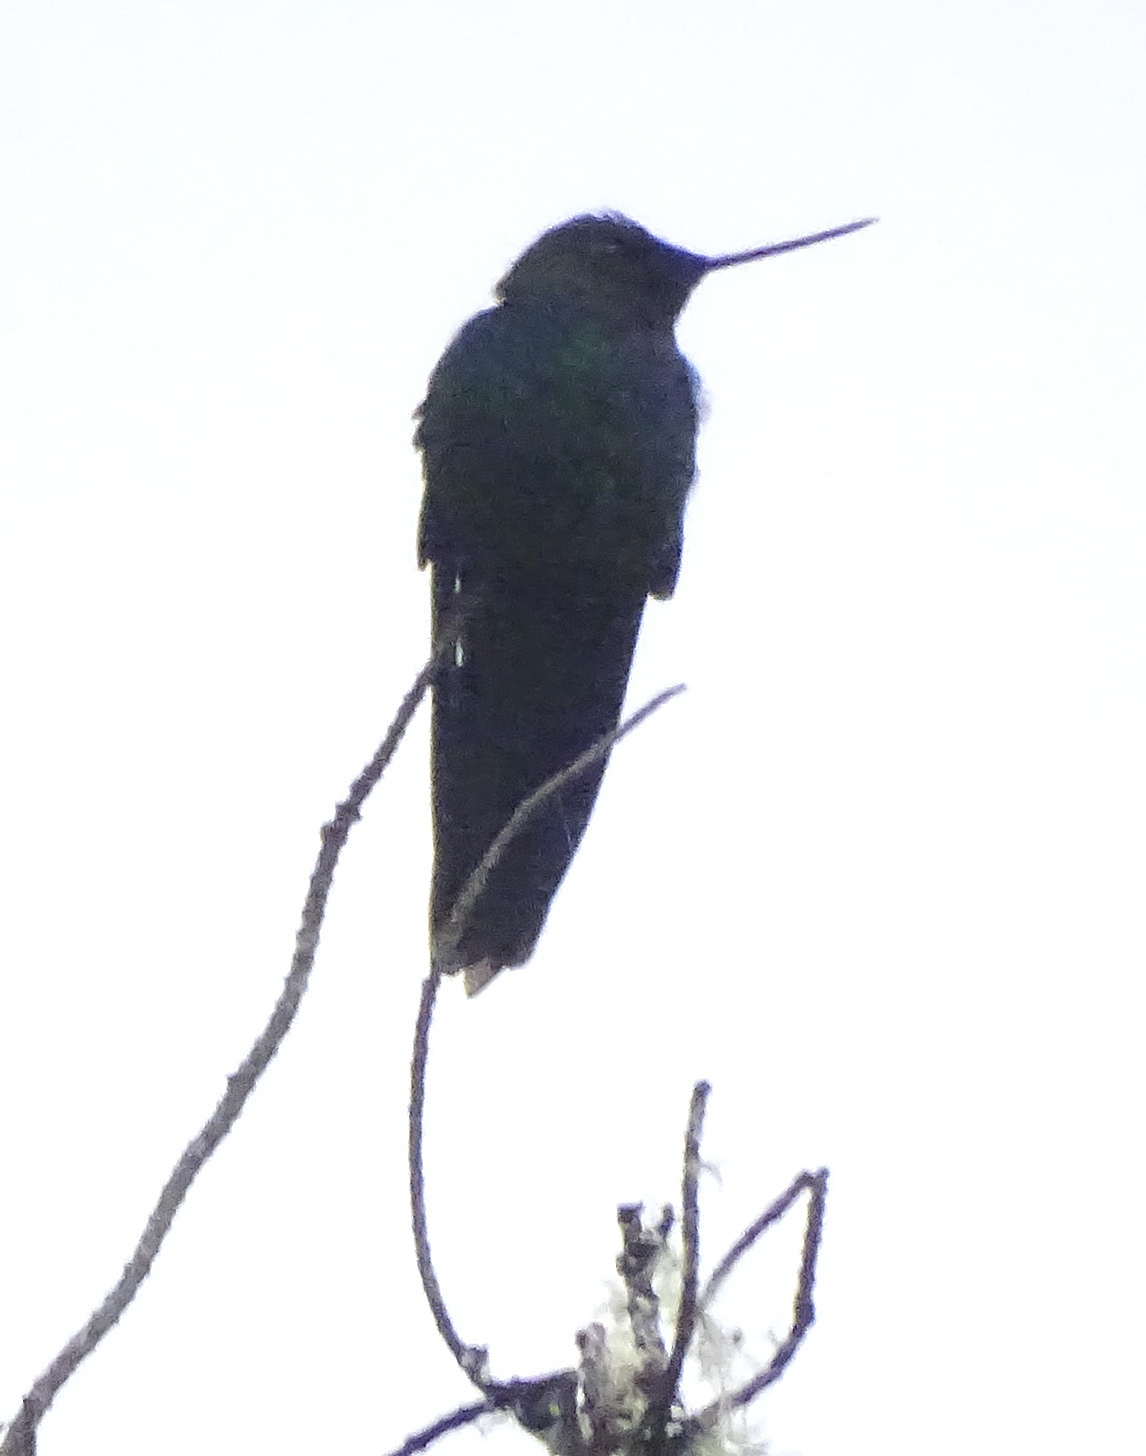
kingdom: Animalia
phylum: Chordata
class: Aves
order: Apodiformes
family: Trochilidae
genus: Pterophanes
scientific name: Pterophanes cyanopterus
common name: Great sapphirewing
